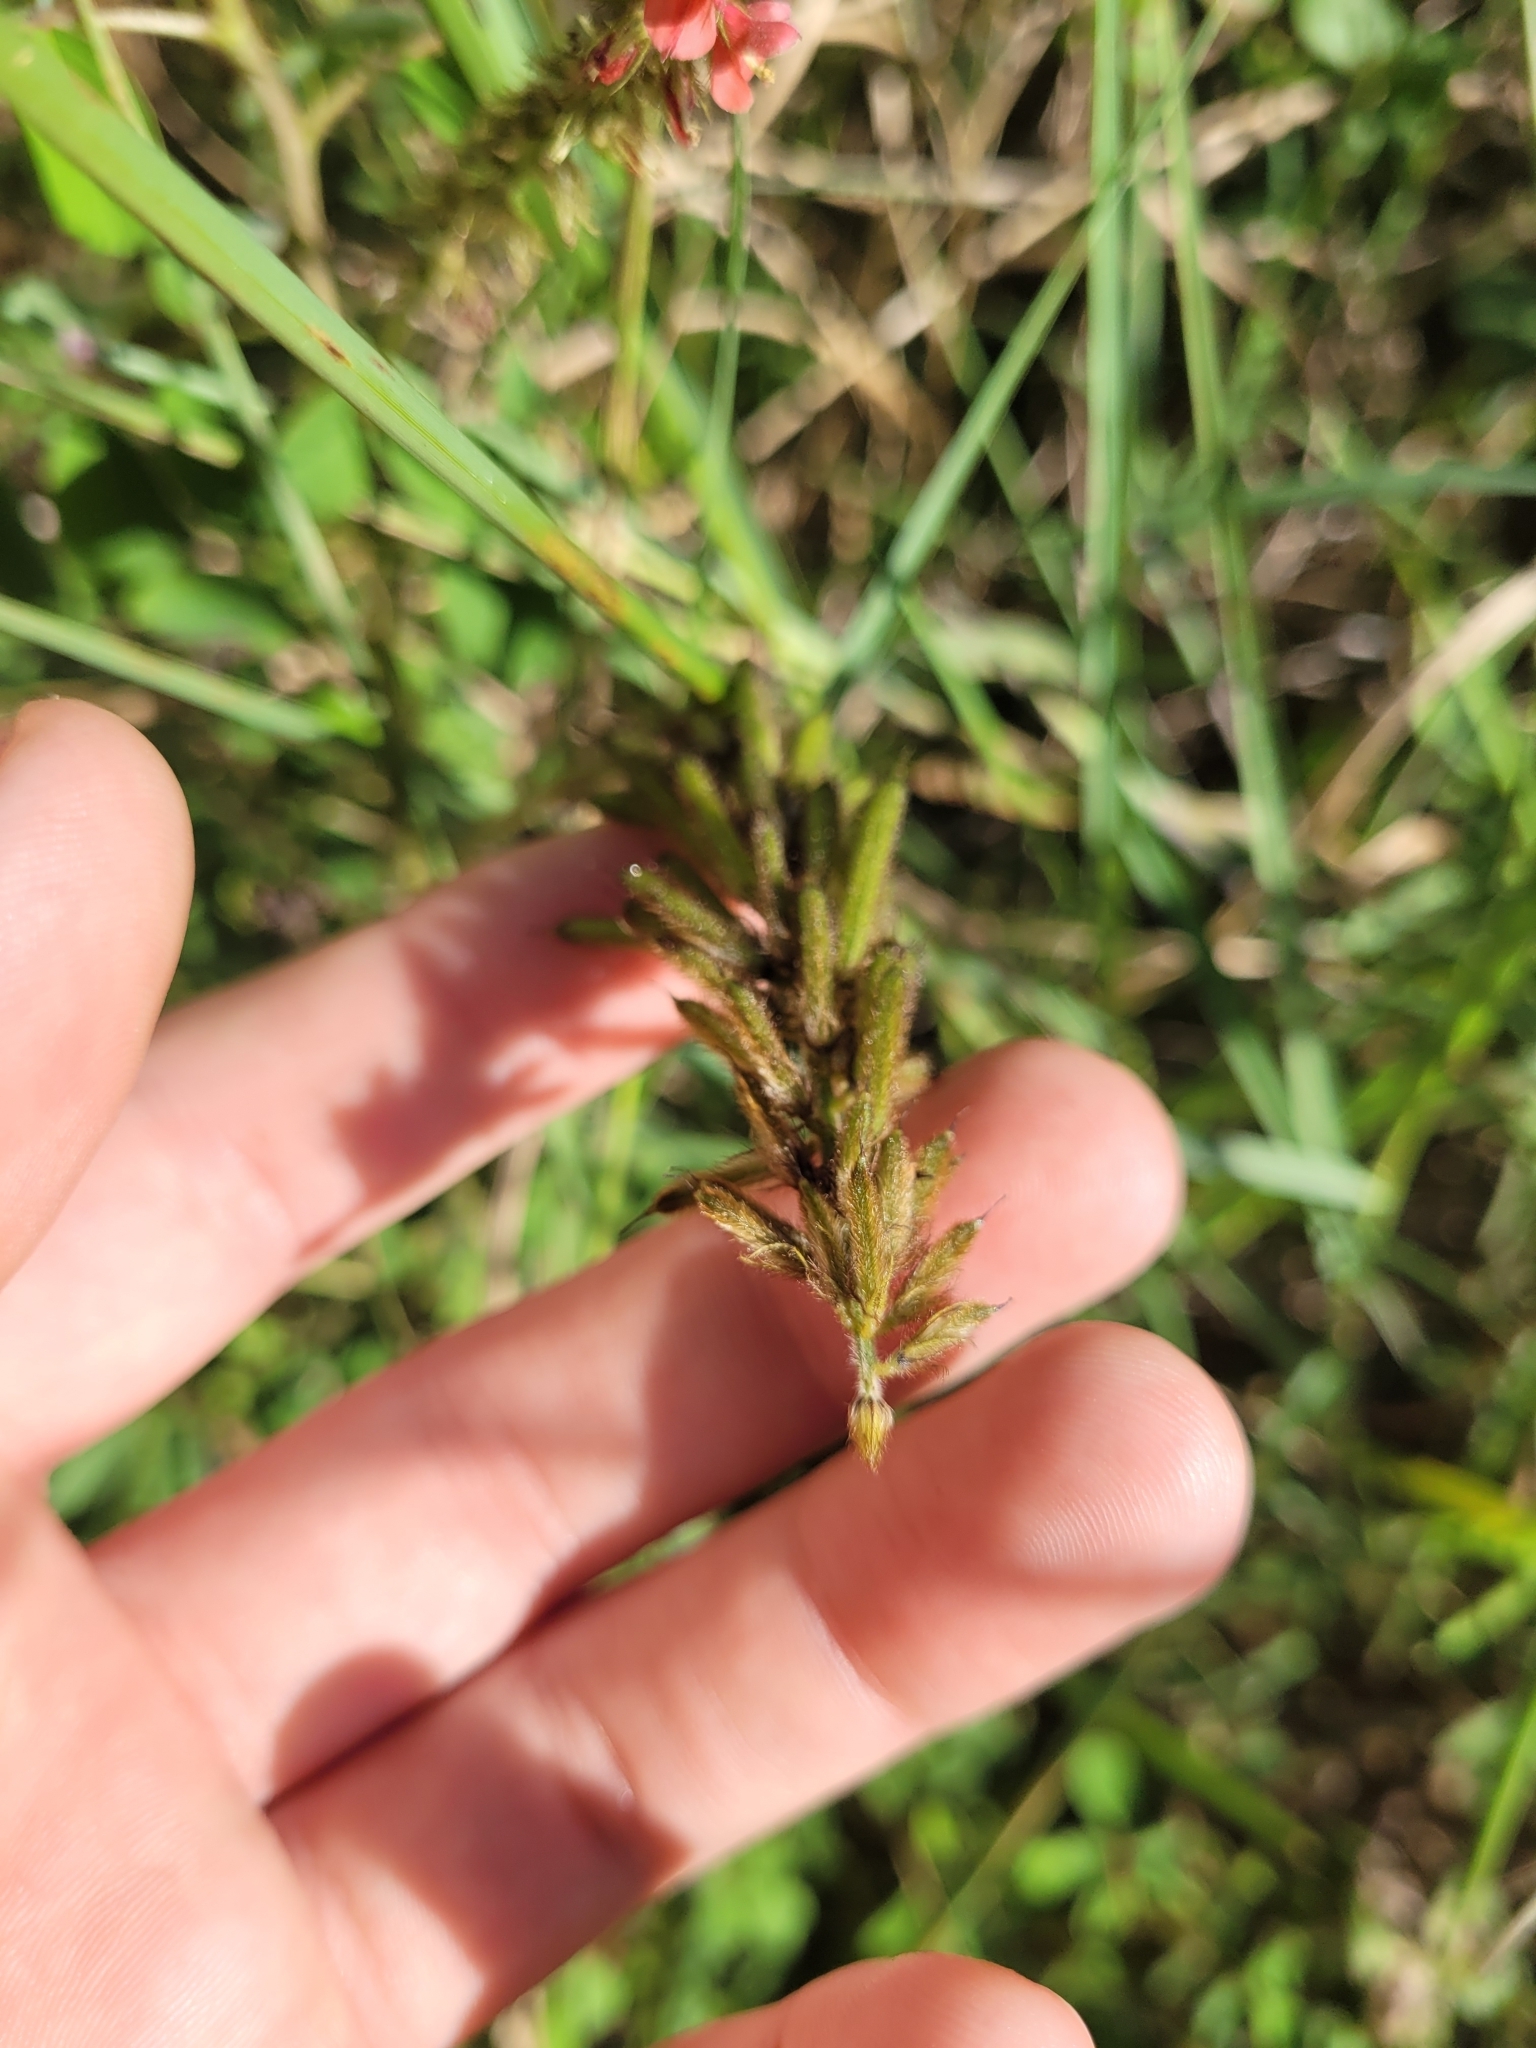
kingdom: Plantae
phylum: Tracheophyta
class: Magnoliopsida
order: Fabales
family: Fabaceae
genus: Indigofera
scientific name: Indigofera hirsuta
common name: Hairy indigo
